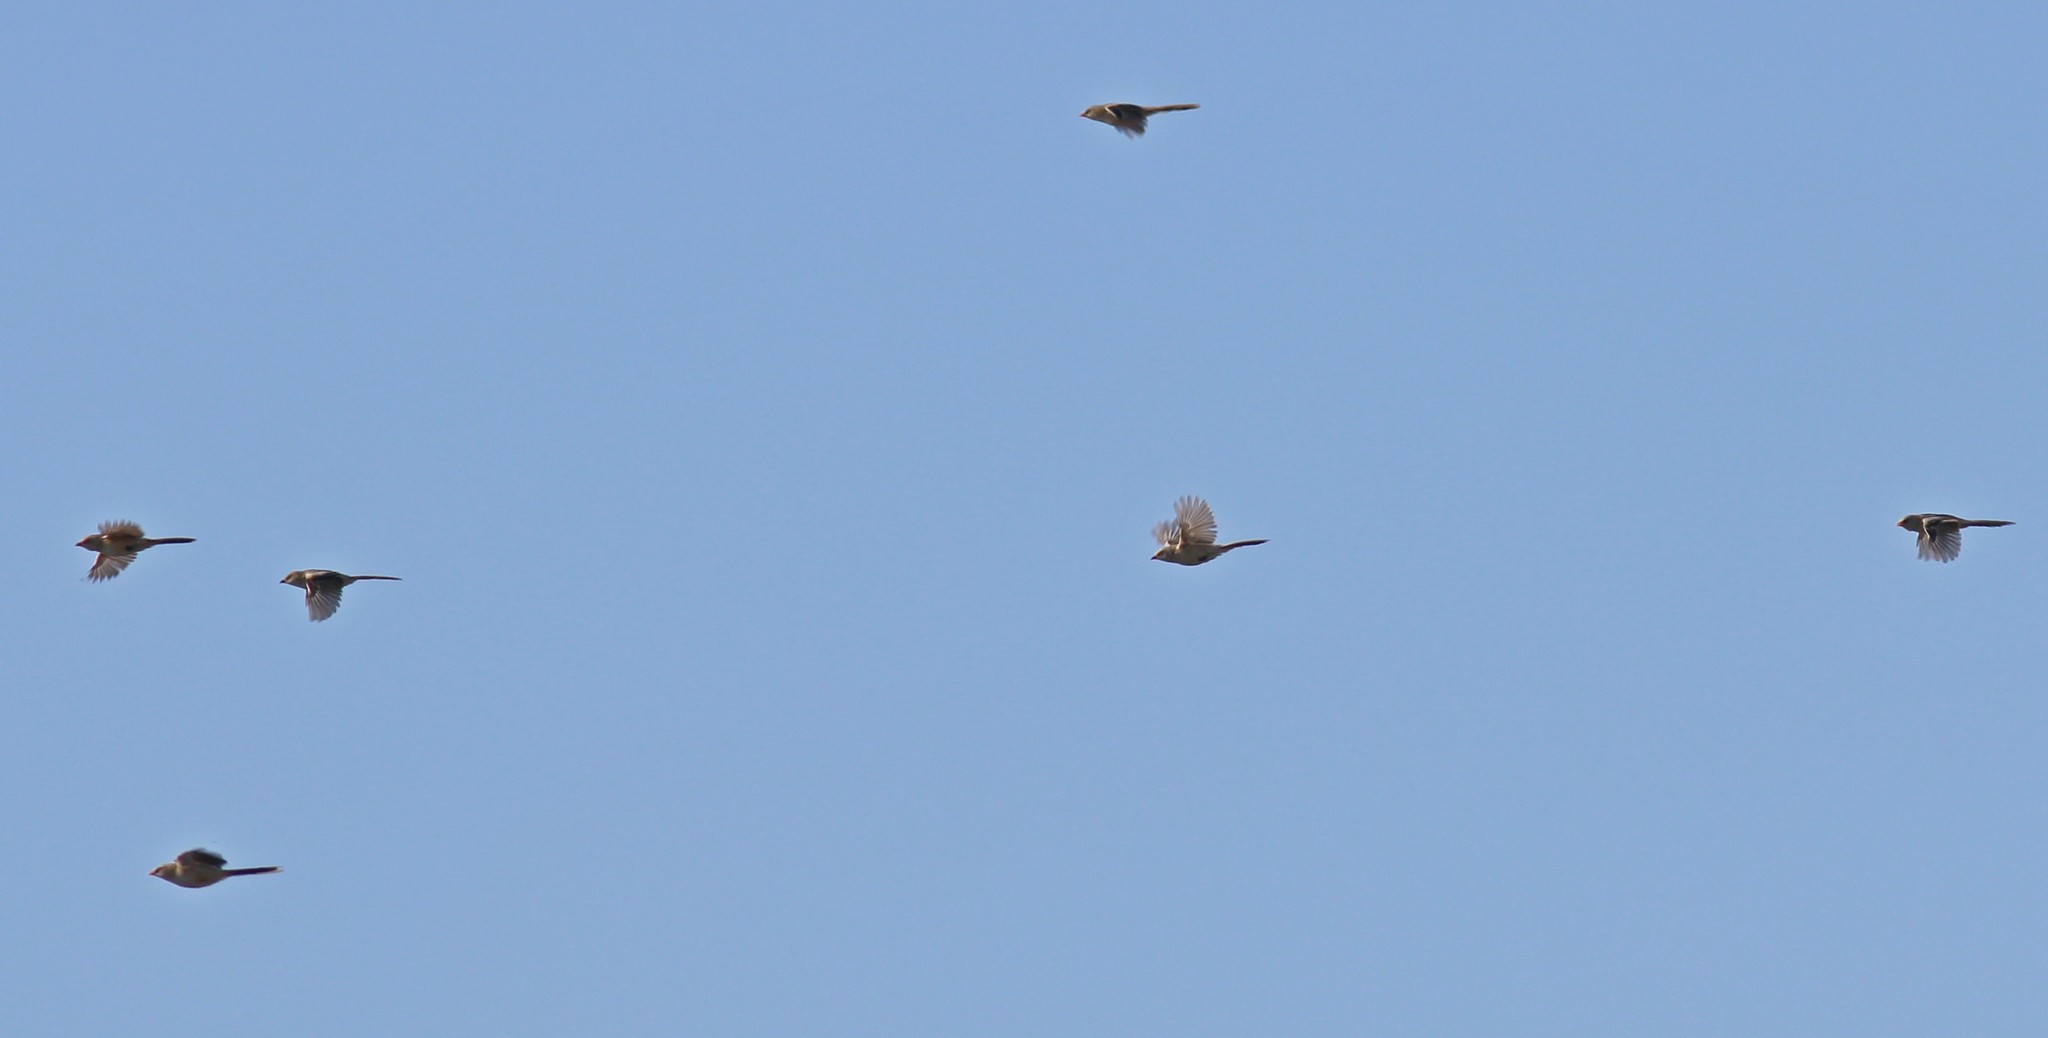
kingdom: Animalia
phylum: Chordata
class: Aves
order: Passeriformes
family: Panuridae
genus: Panurus
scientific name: Panurus biarmicus
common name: Bearded reedling
